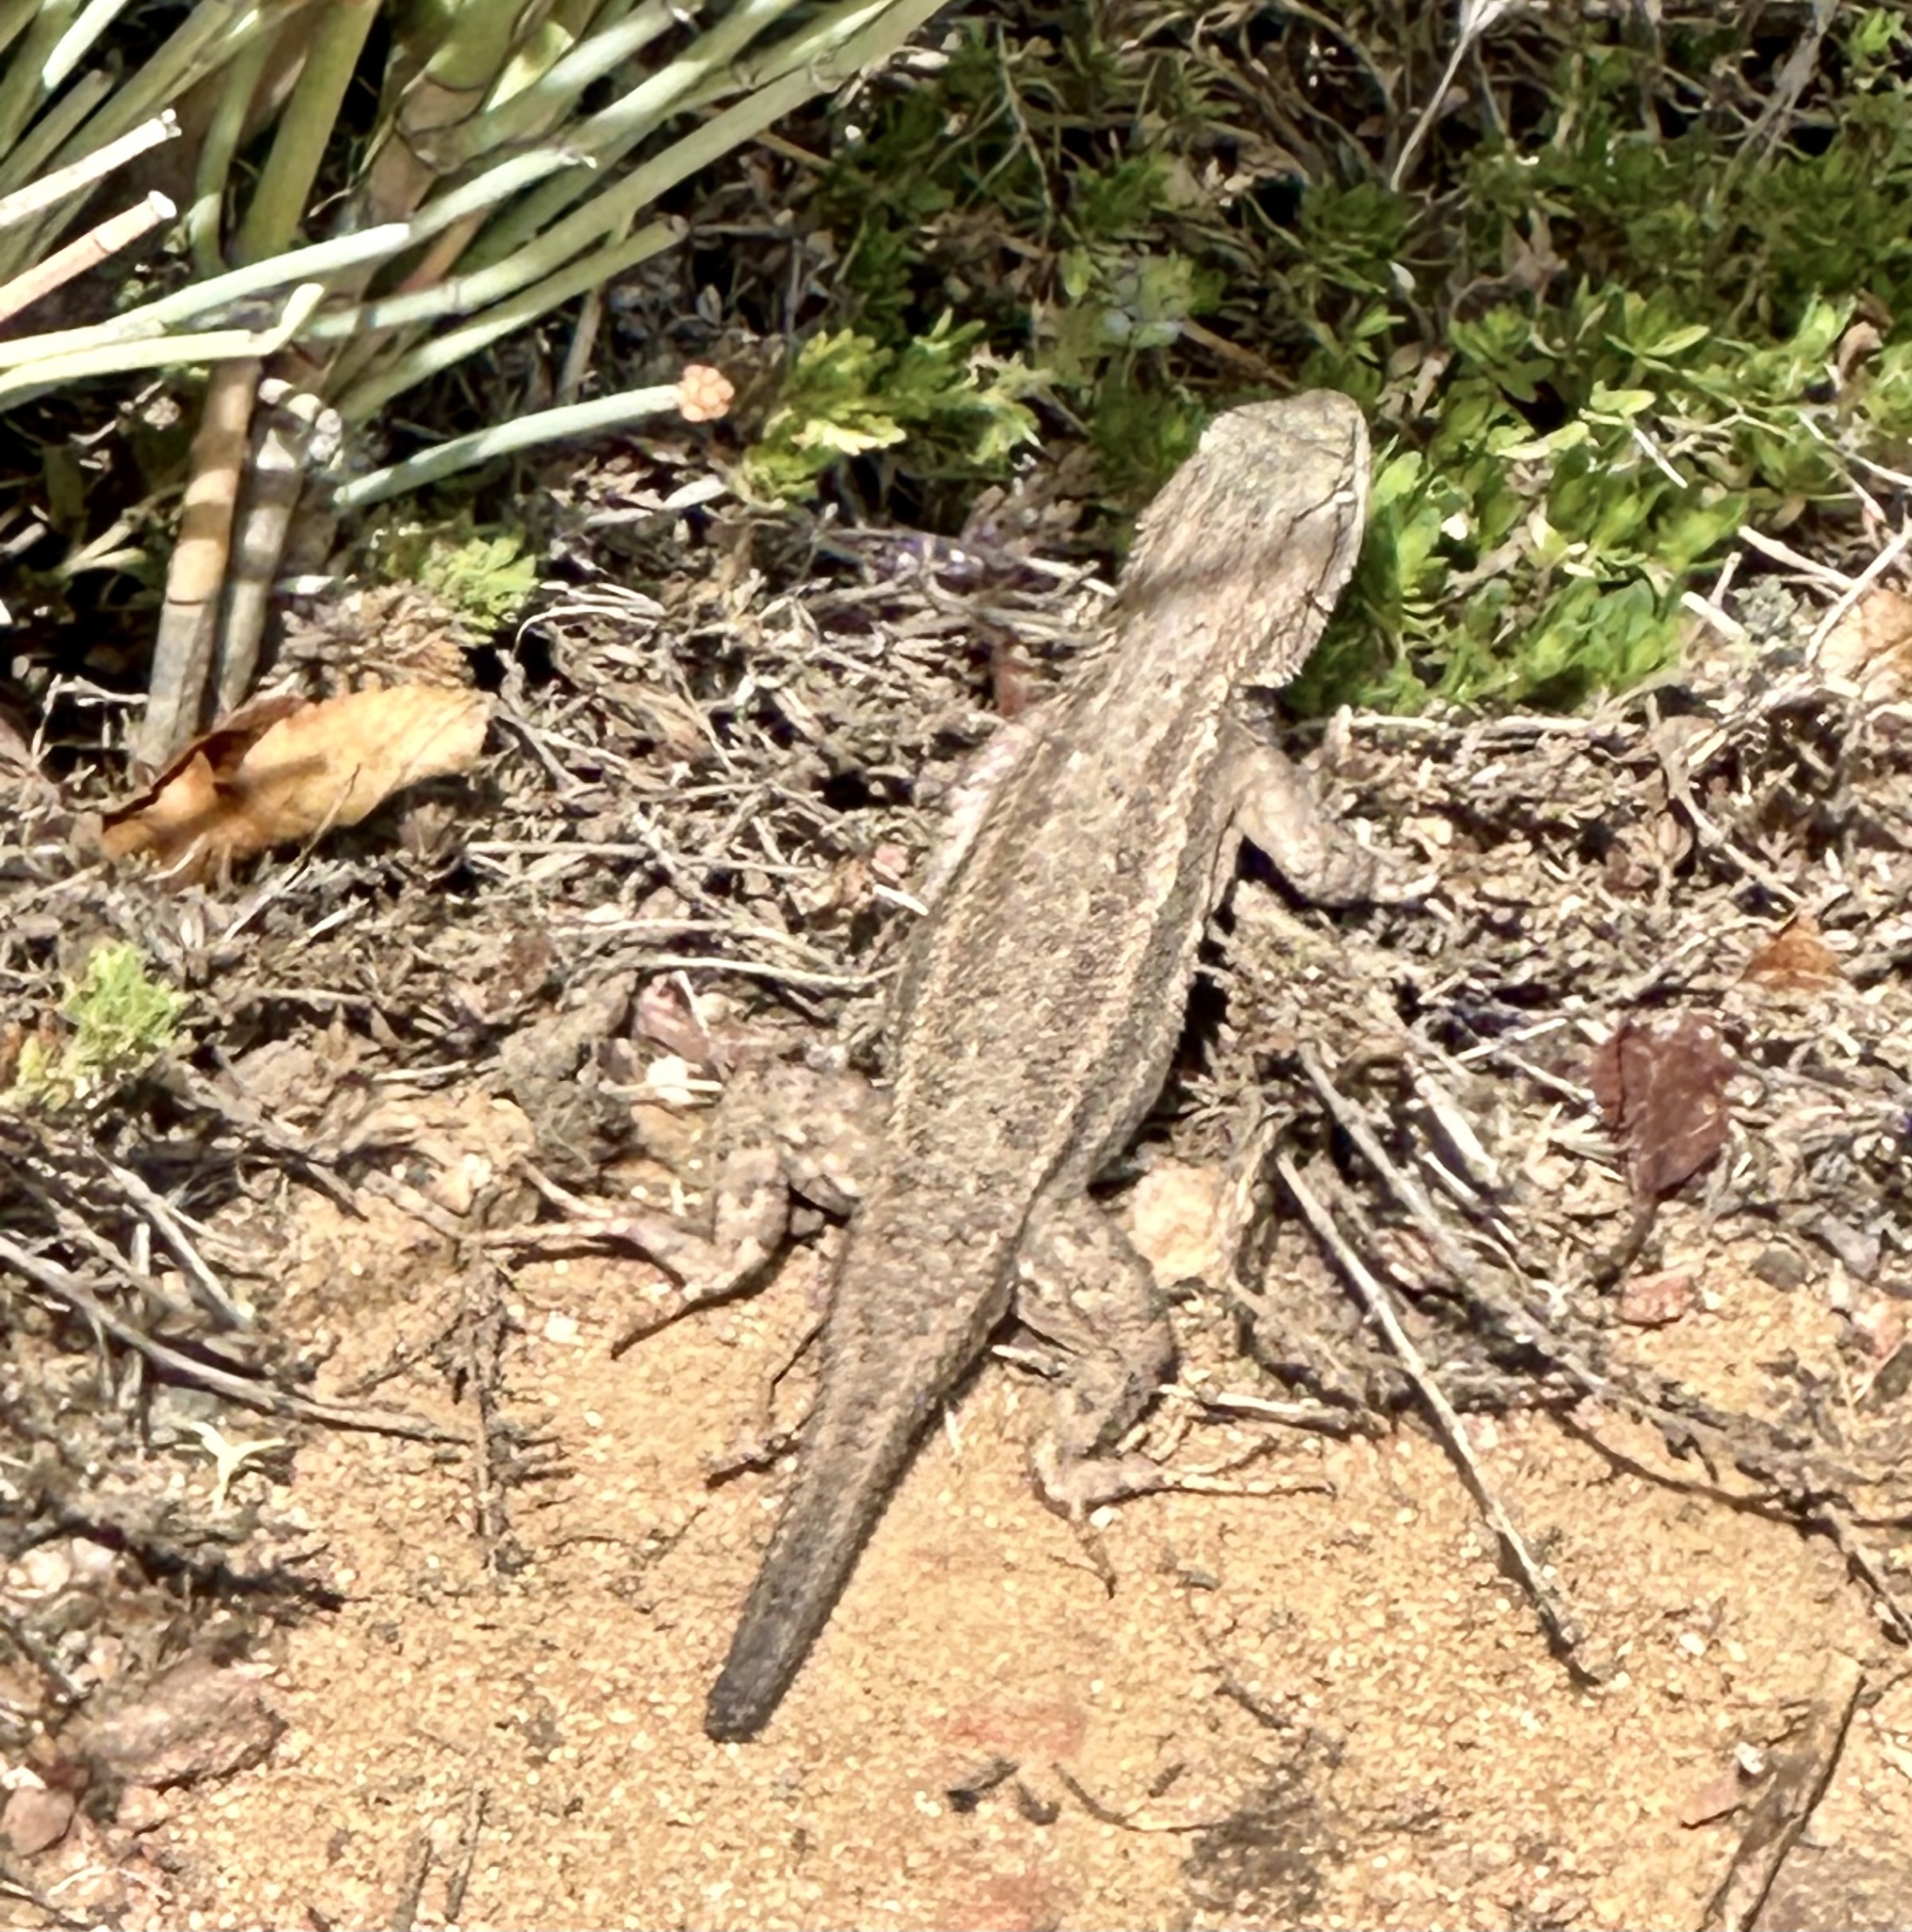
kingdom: Animalia
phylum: Chordata
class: Squamata
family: Phrynosomatidae
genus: Sceloporus
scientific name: Sceloporus
